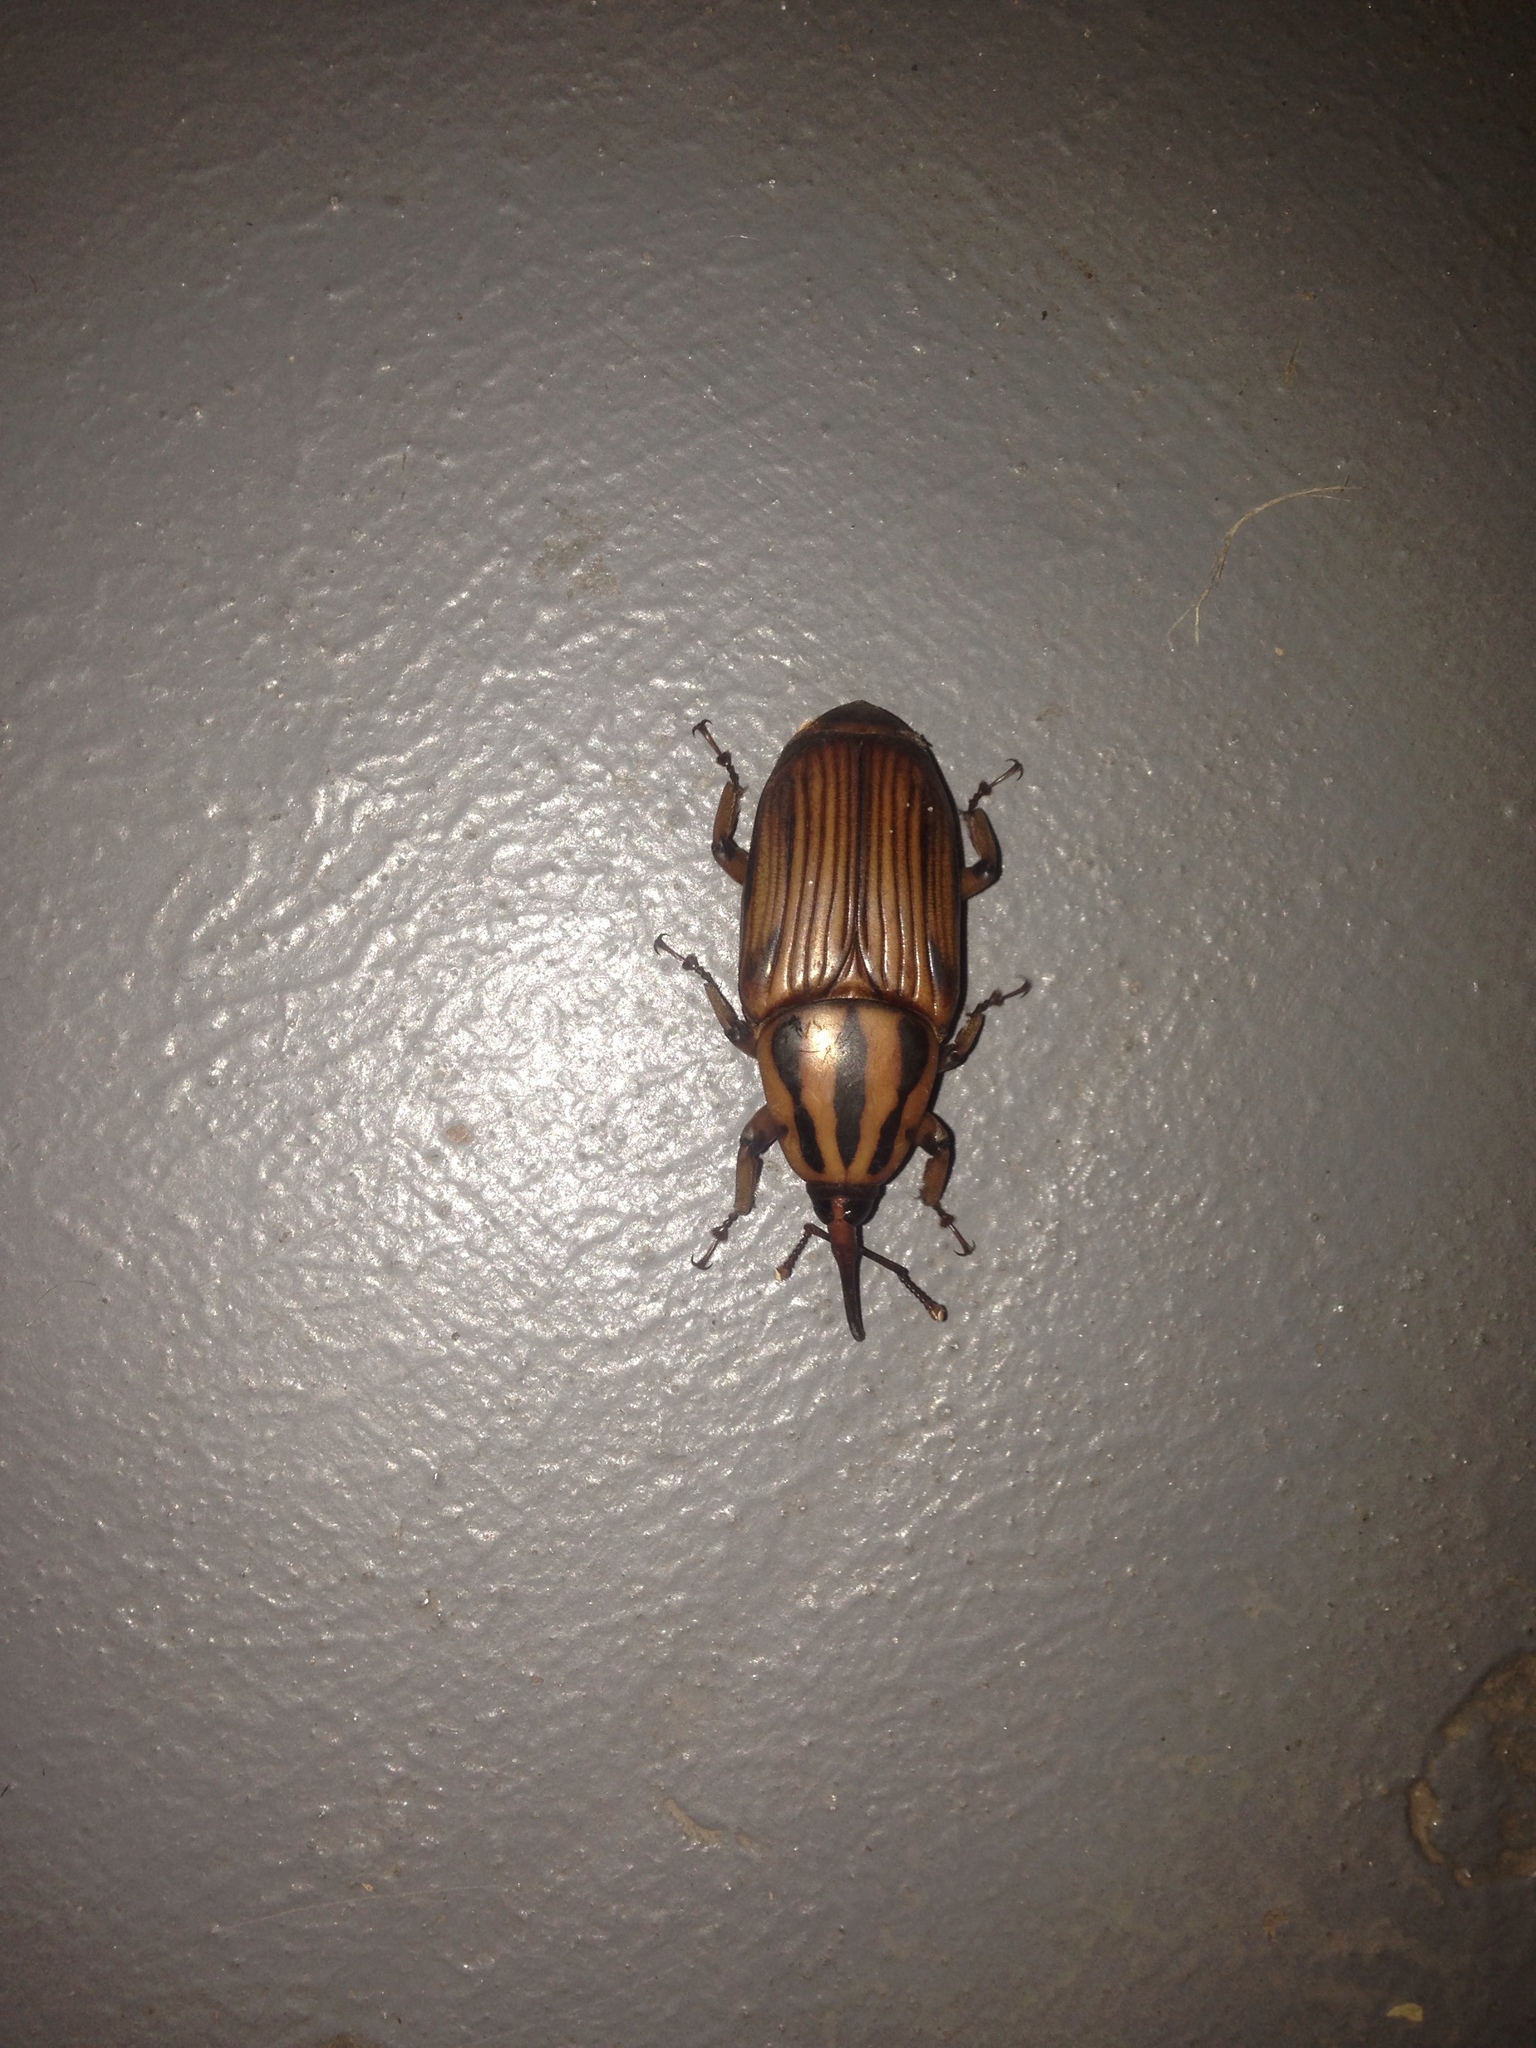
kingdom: Animalia
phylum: Arthropoda
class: Insecta
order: Coleoptera
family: Dryophthoridae
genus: Rhynchophorus
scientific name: Rhynchophorus phoenicis
